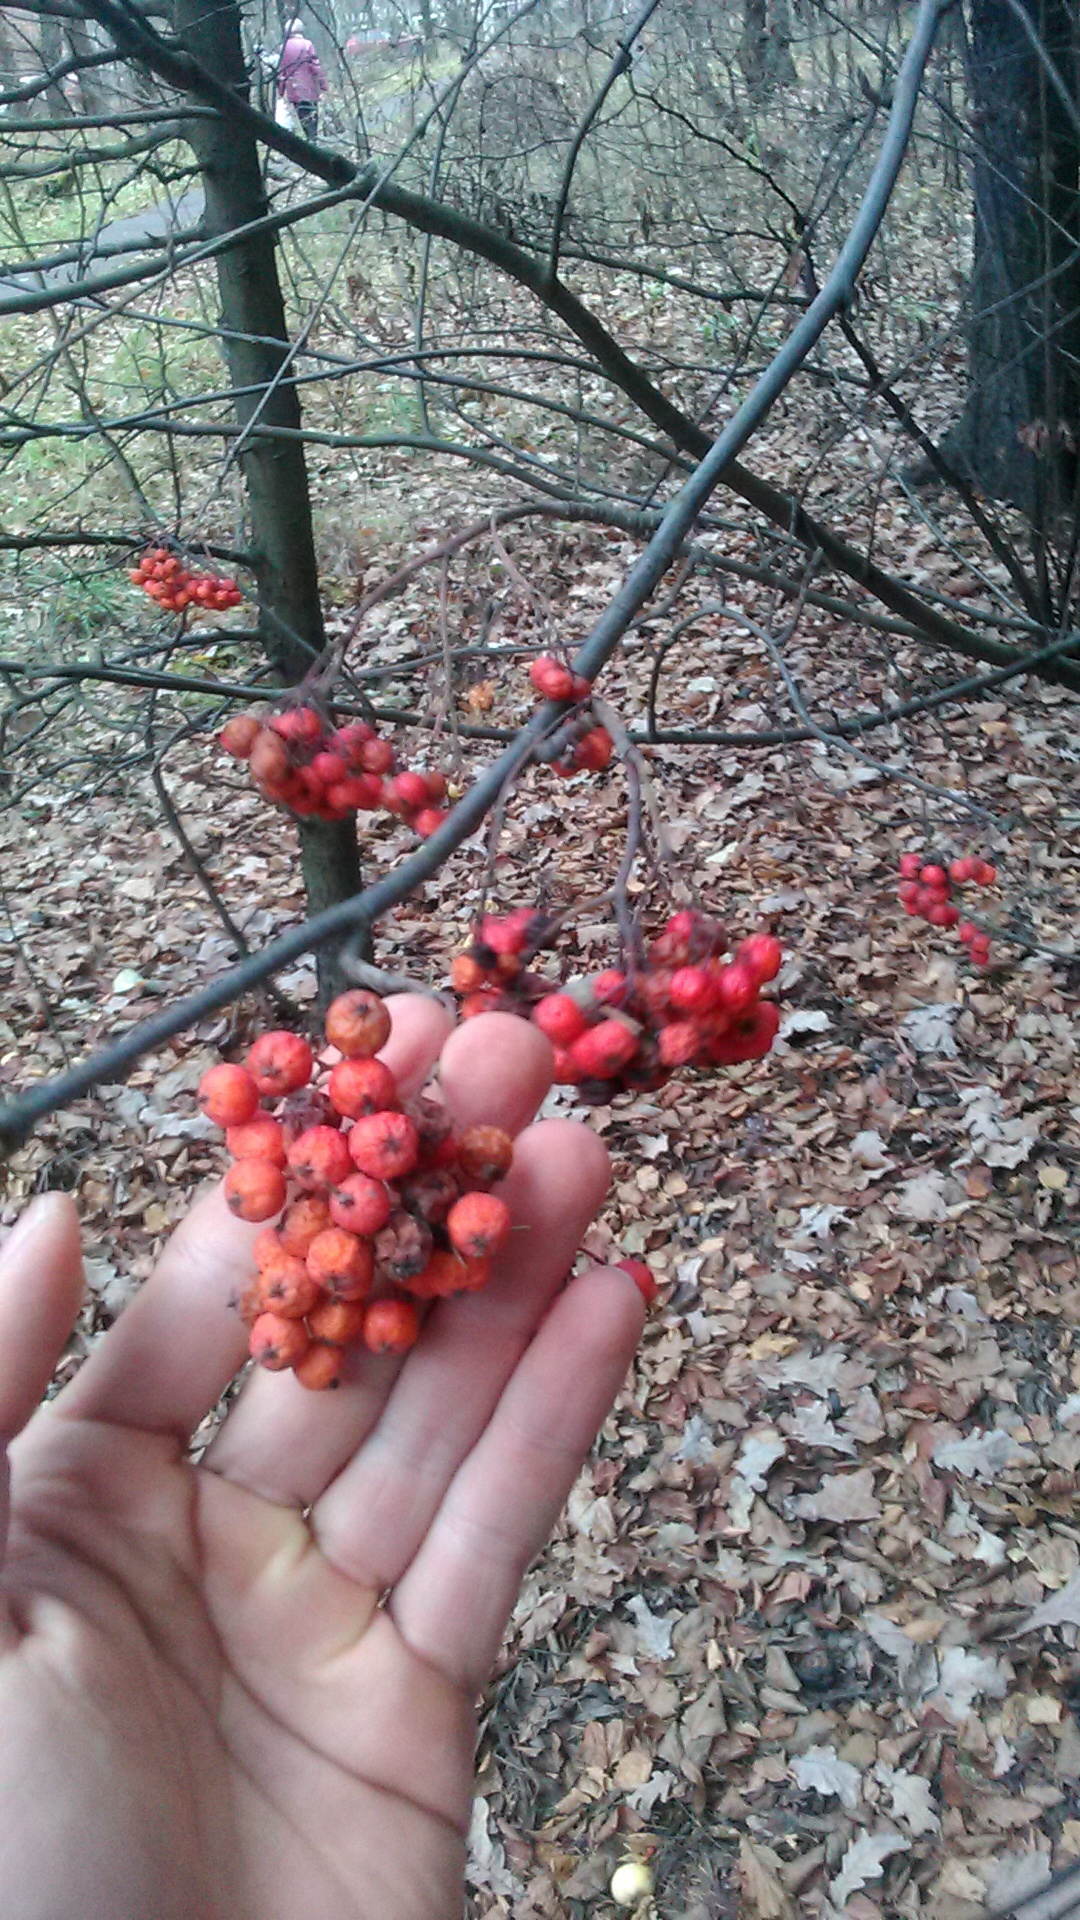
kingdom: Plantae
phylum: Tracheophyta
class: Magnoliopsida
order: Rosales
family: Rosaceae
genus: Sorbus
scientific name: Sorbus aucuparia
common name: Rowan
